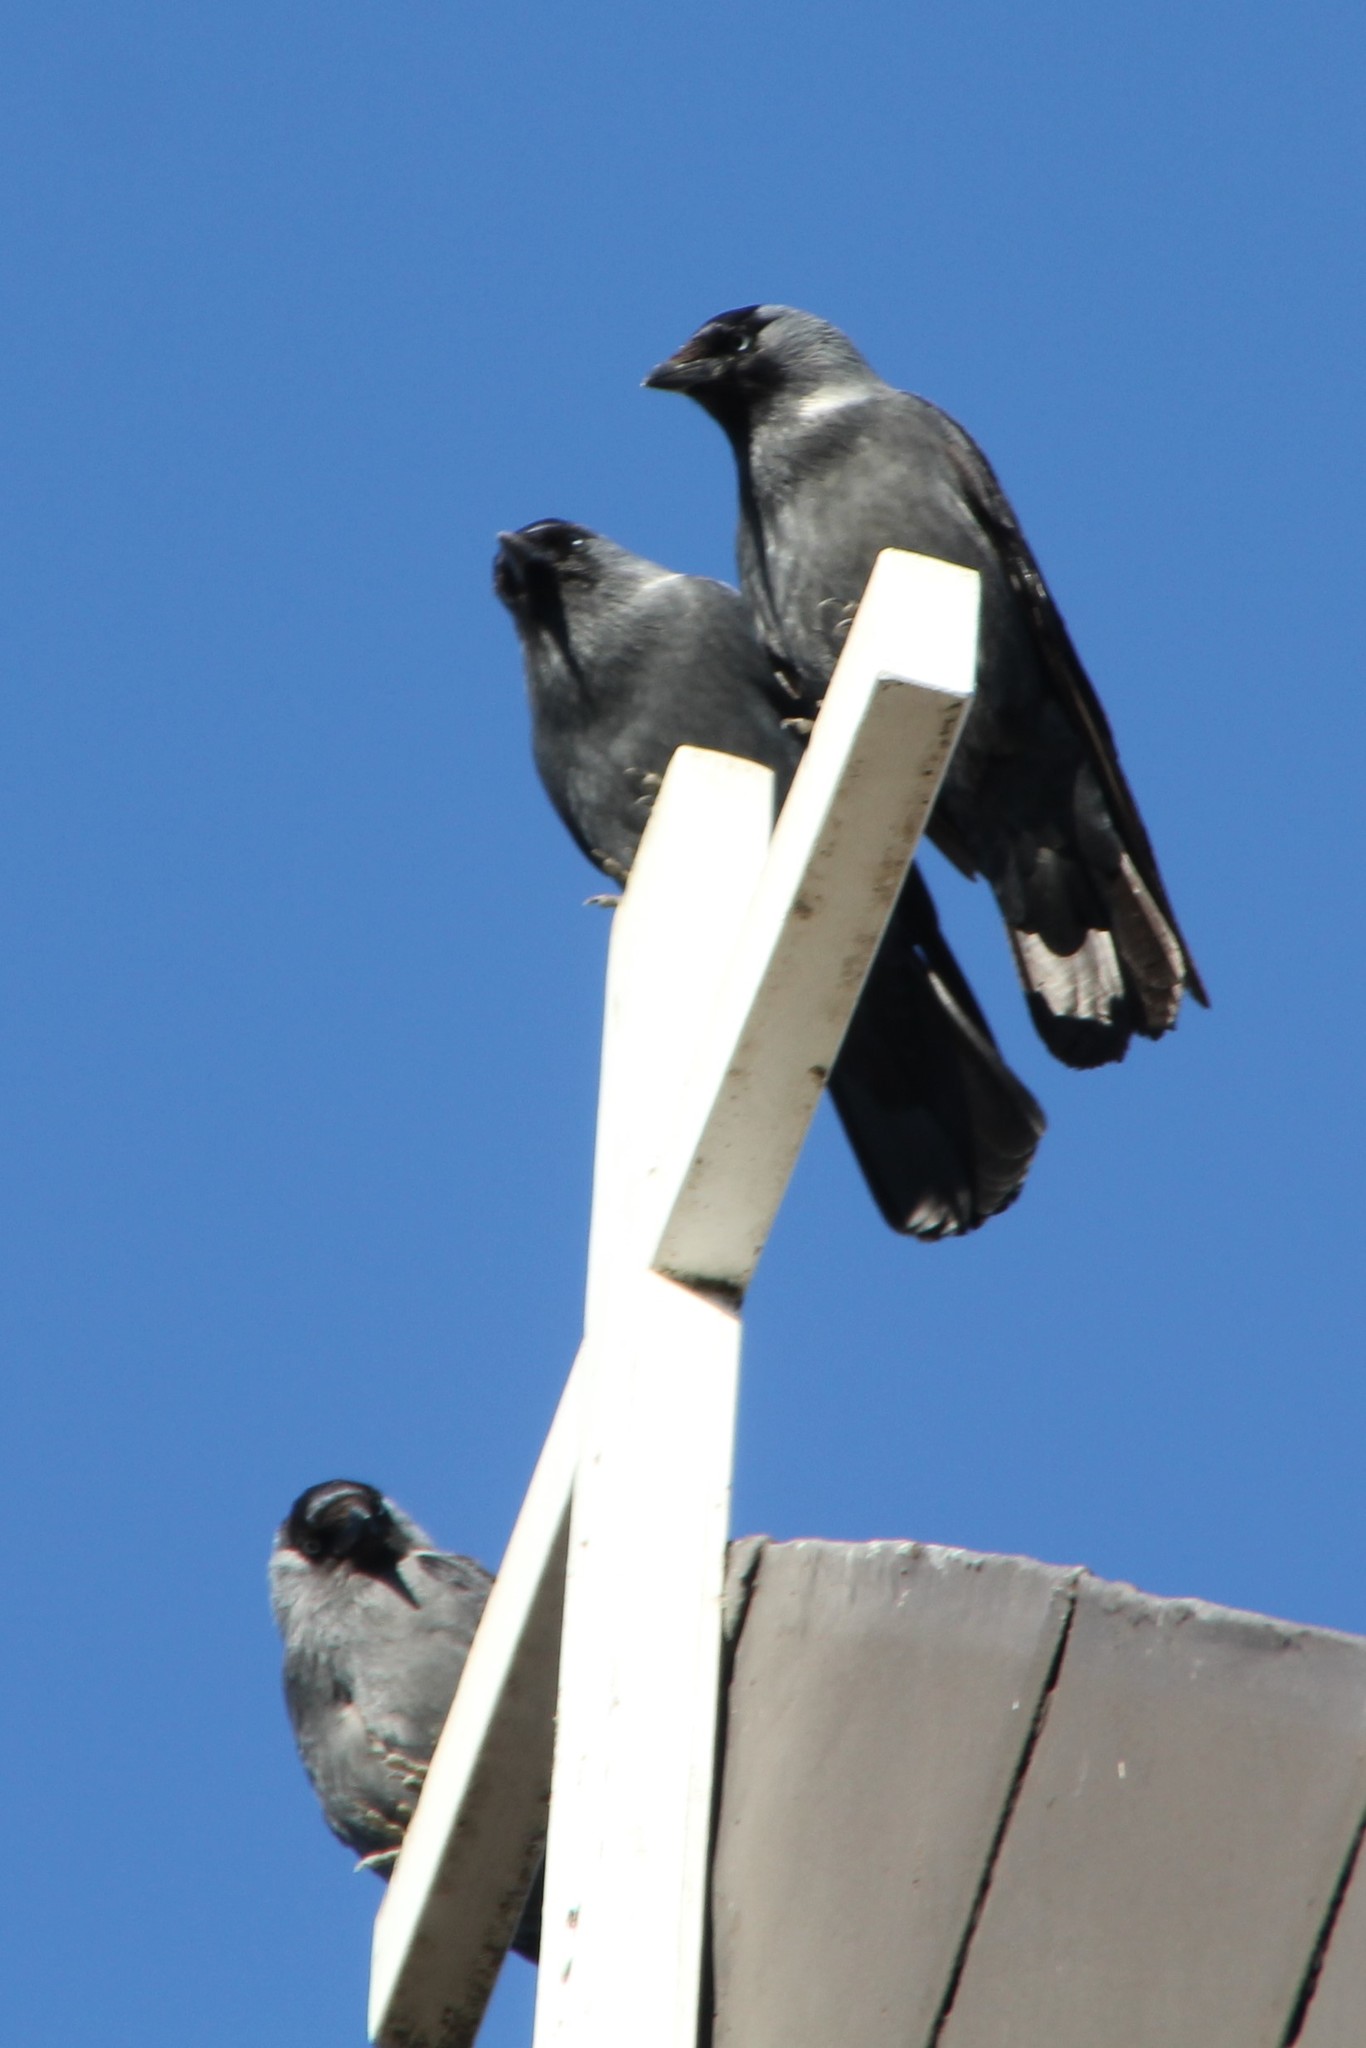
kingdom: Animalia
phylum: Chordata
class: Aves
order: Passeriformes
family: Corvidae
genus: Coloeus
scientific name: Coloeus monedula
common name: Western jackdaw
